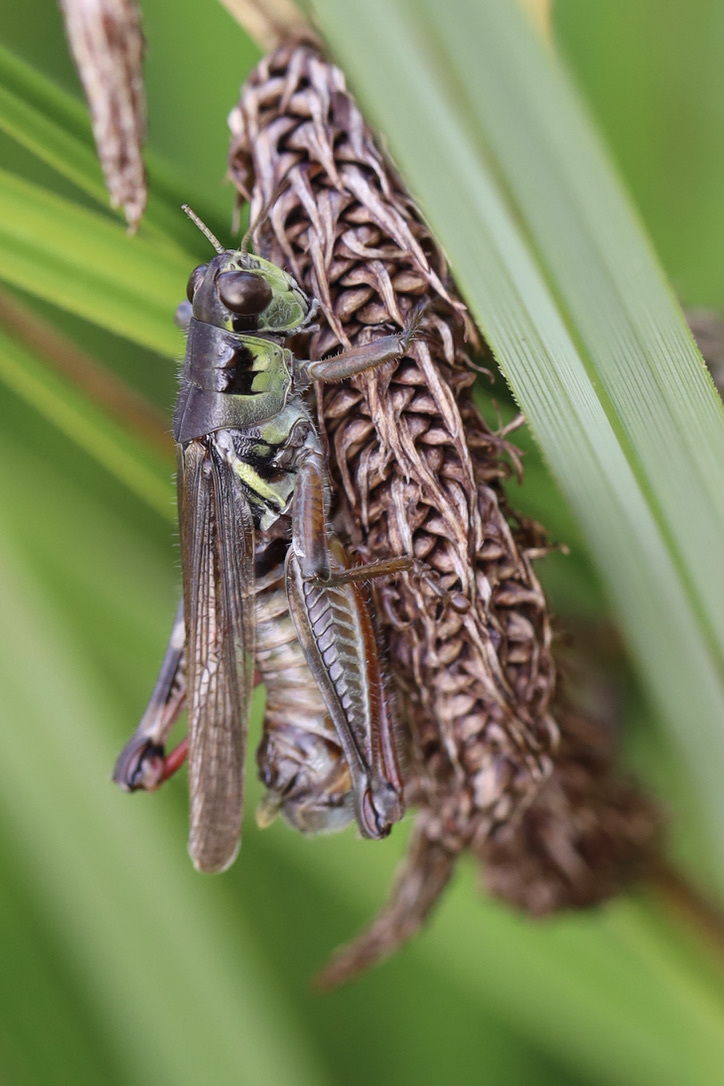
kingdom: Animalia
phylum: Arthropoda
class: Insecta
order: Orthoptera
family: Acrididae
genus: Melanoplus
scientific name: Melanoplus femurrubrum
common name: Red-legged grasshopper
